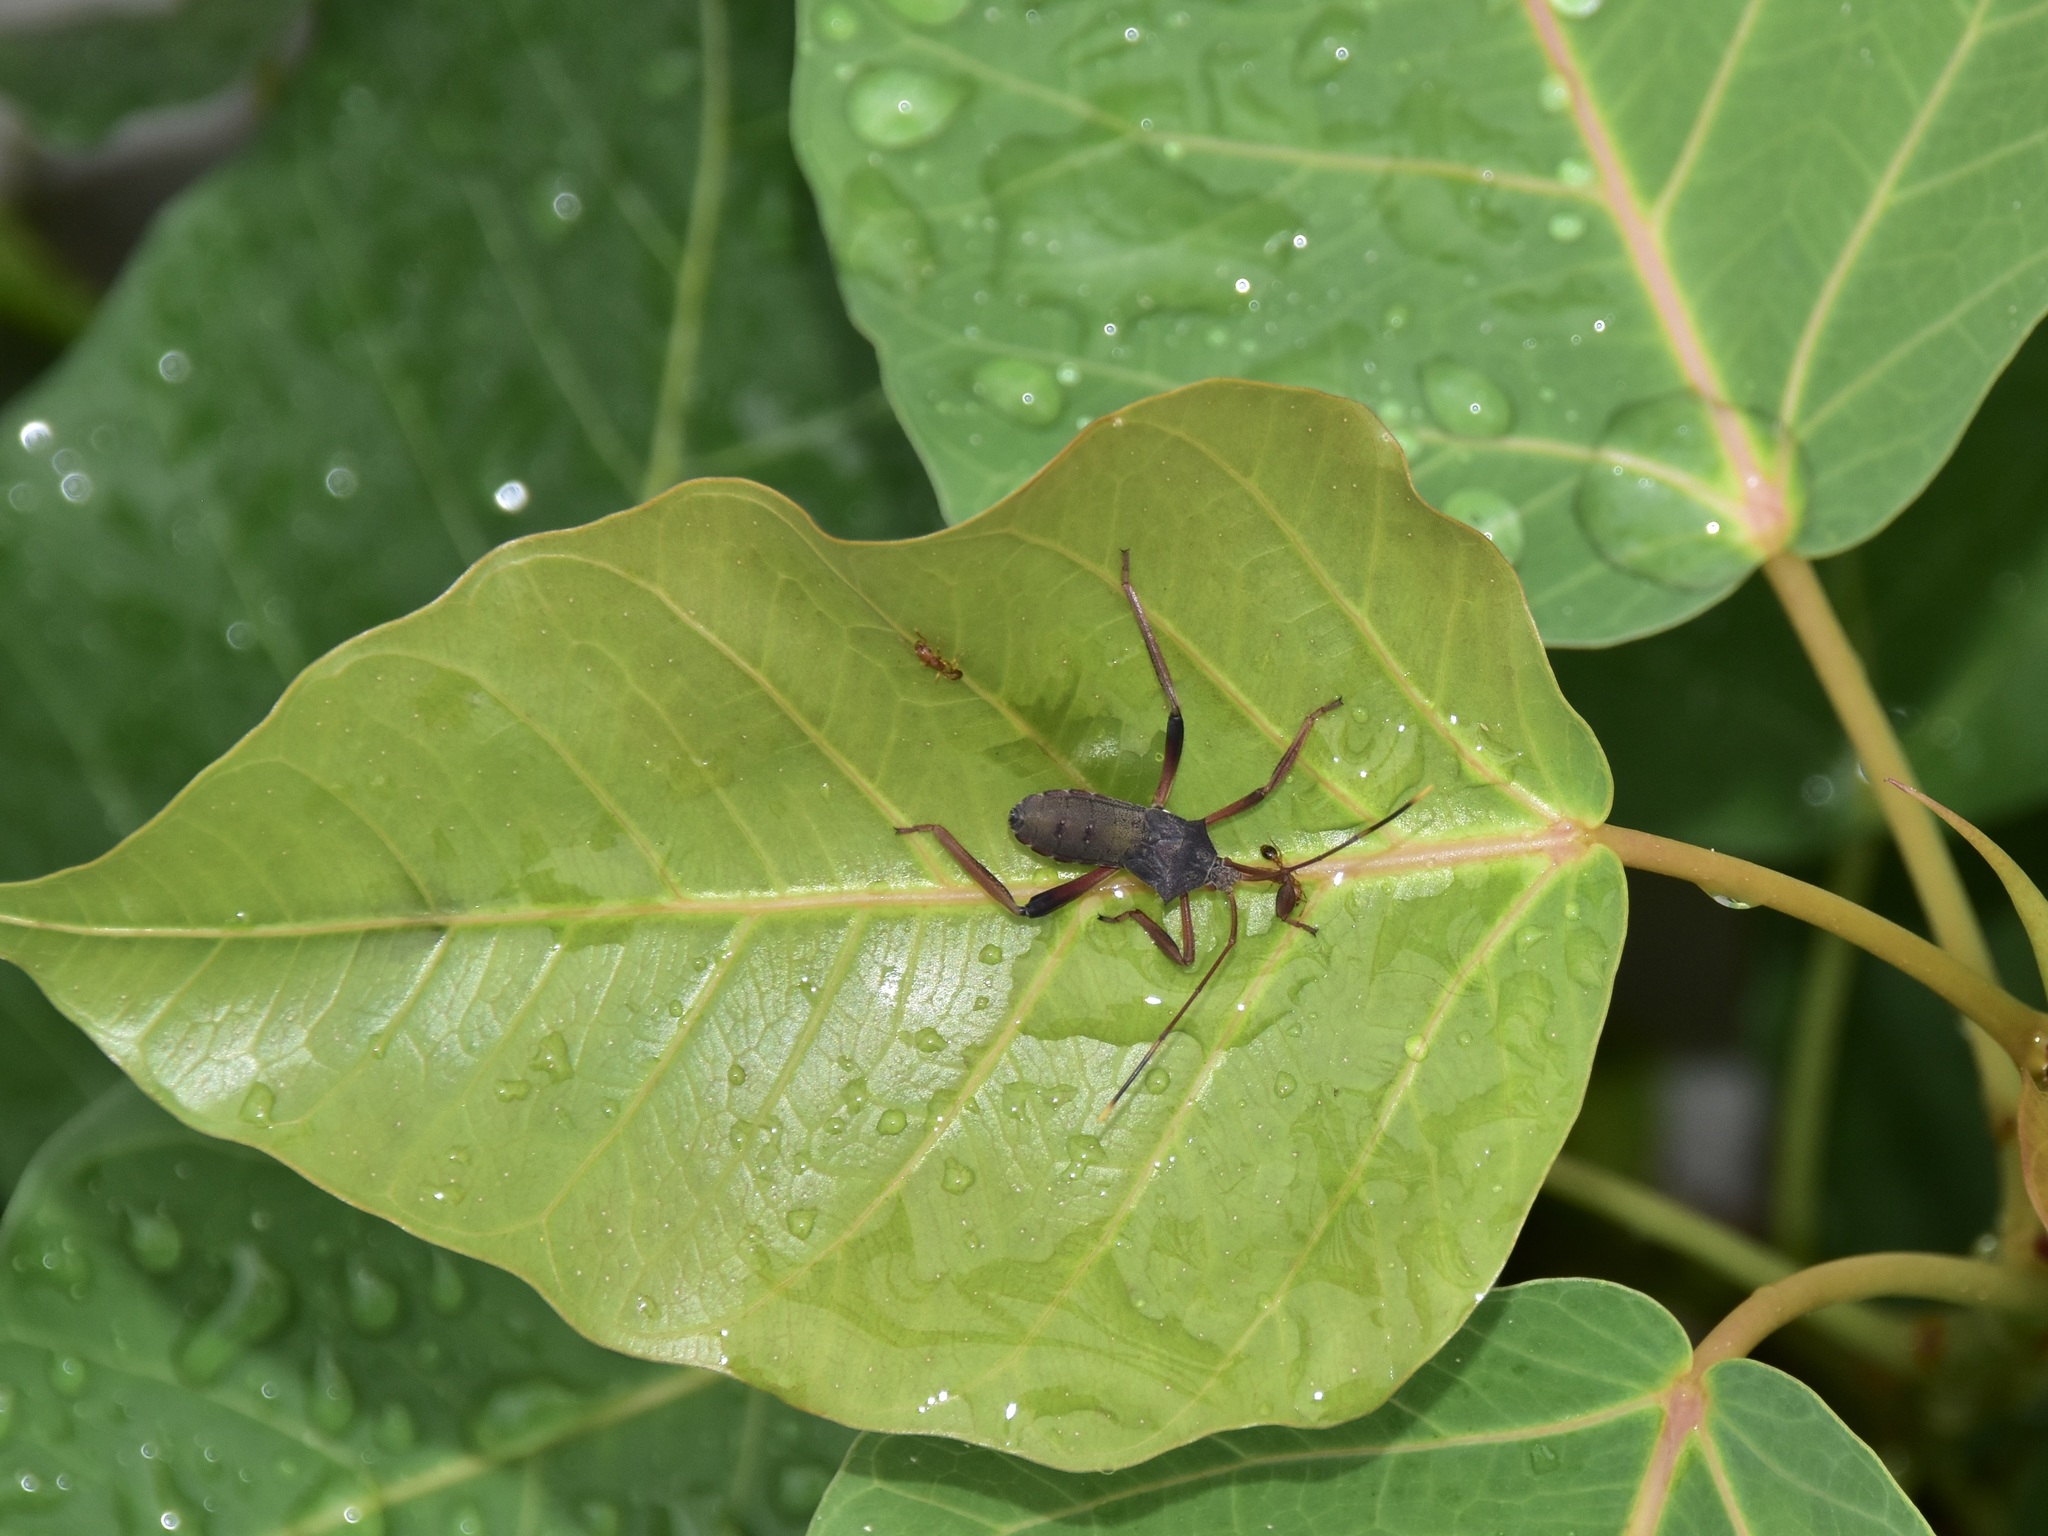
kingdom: Animalia
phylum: Arthropoda
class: Insecta
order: Hemiptera
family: Coreidae
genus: Mictis
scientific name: Mictis longicornis
